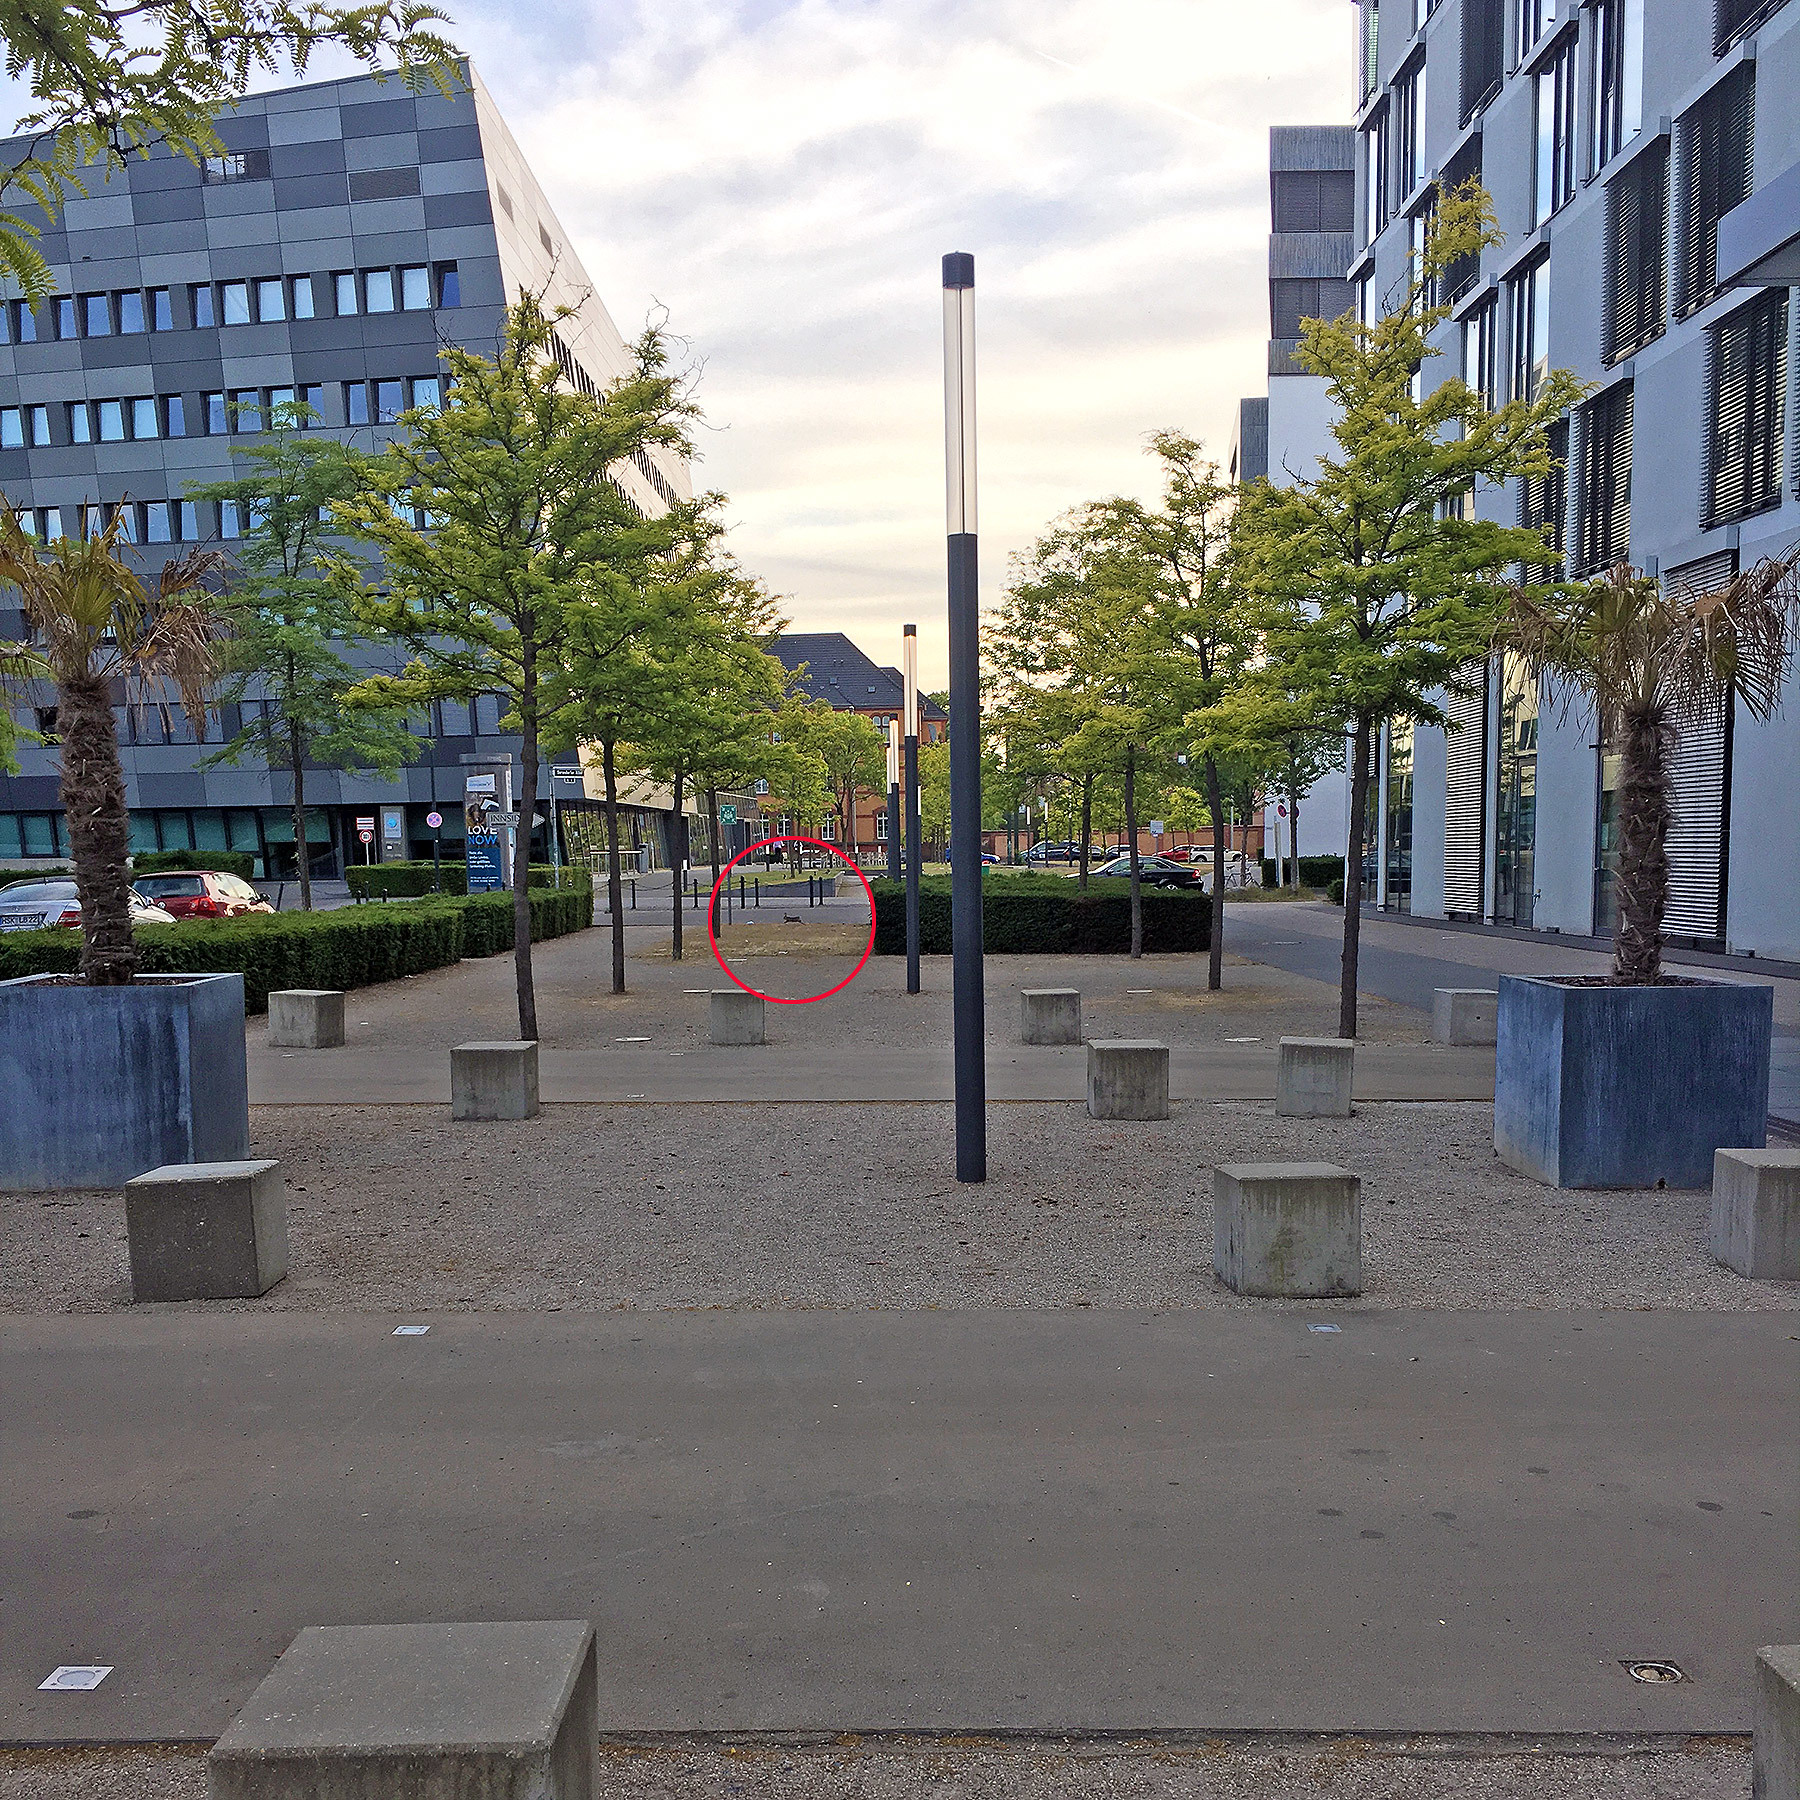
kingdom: Animalia
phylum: Chordata
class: Mammalia
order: Lagomorpha
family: Leporidae
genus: Oryctolagus
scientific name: Oryctolagus cuniculus
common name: European rabbit
